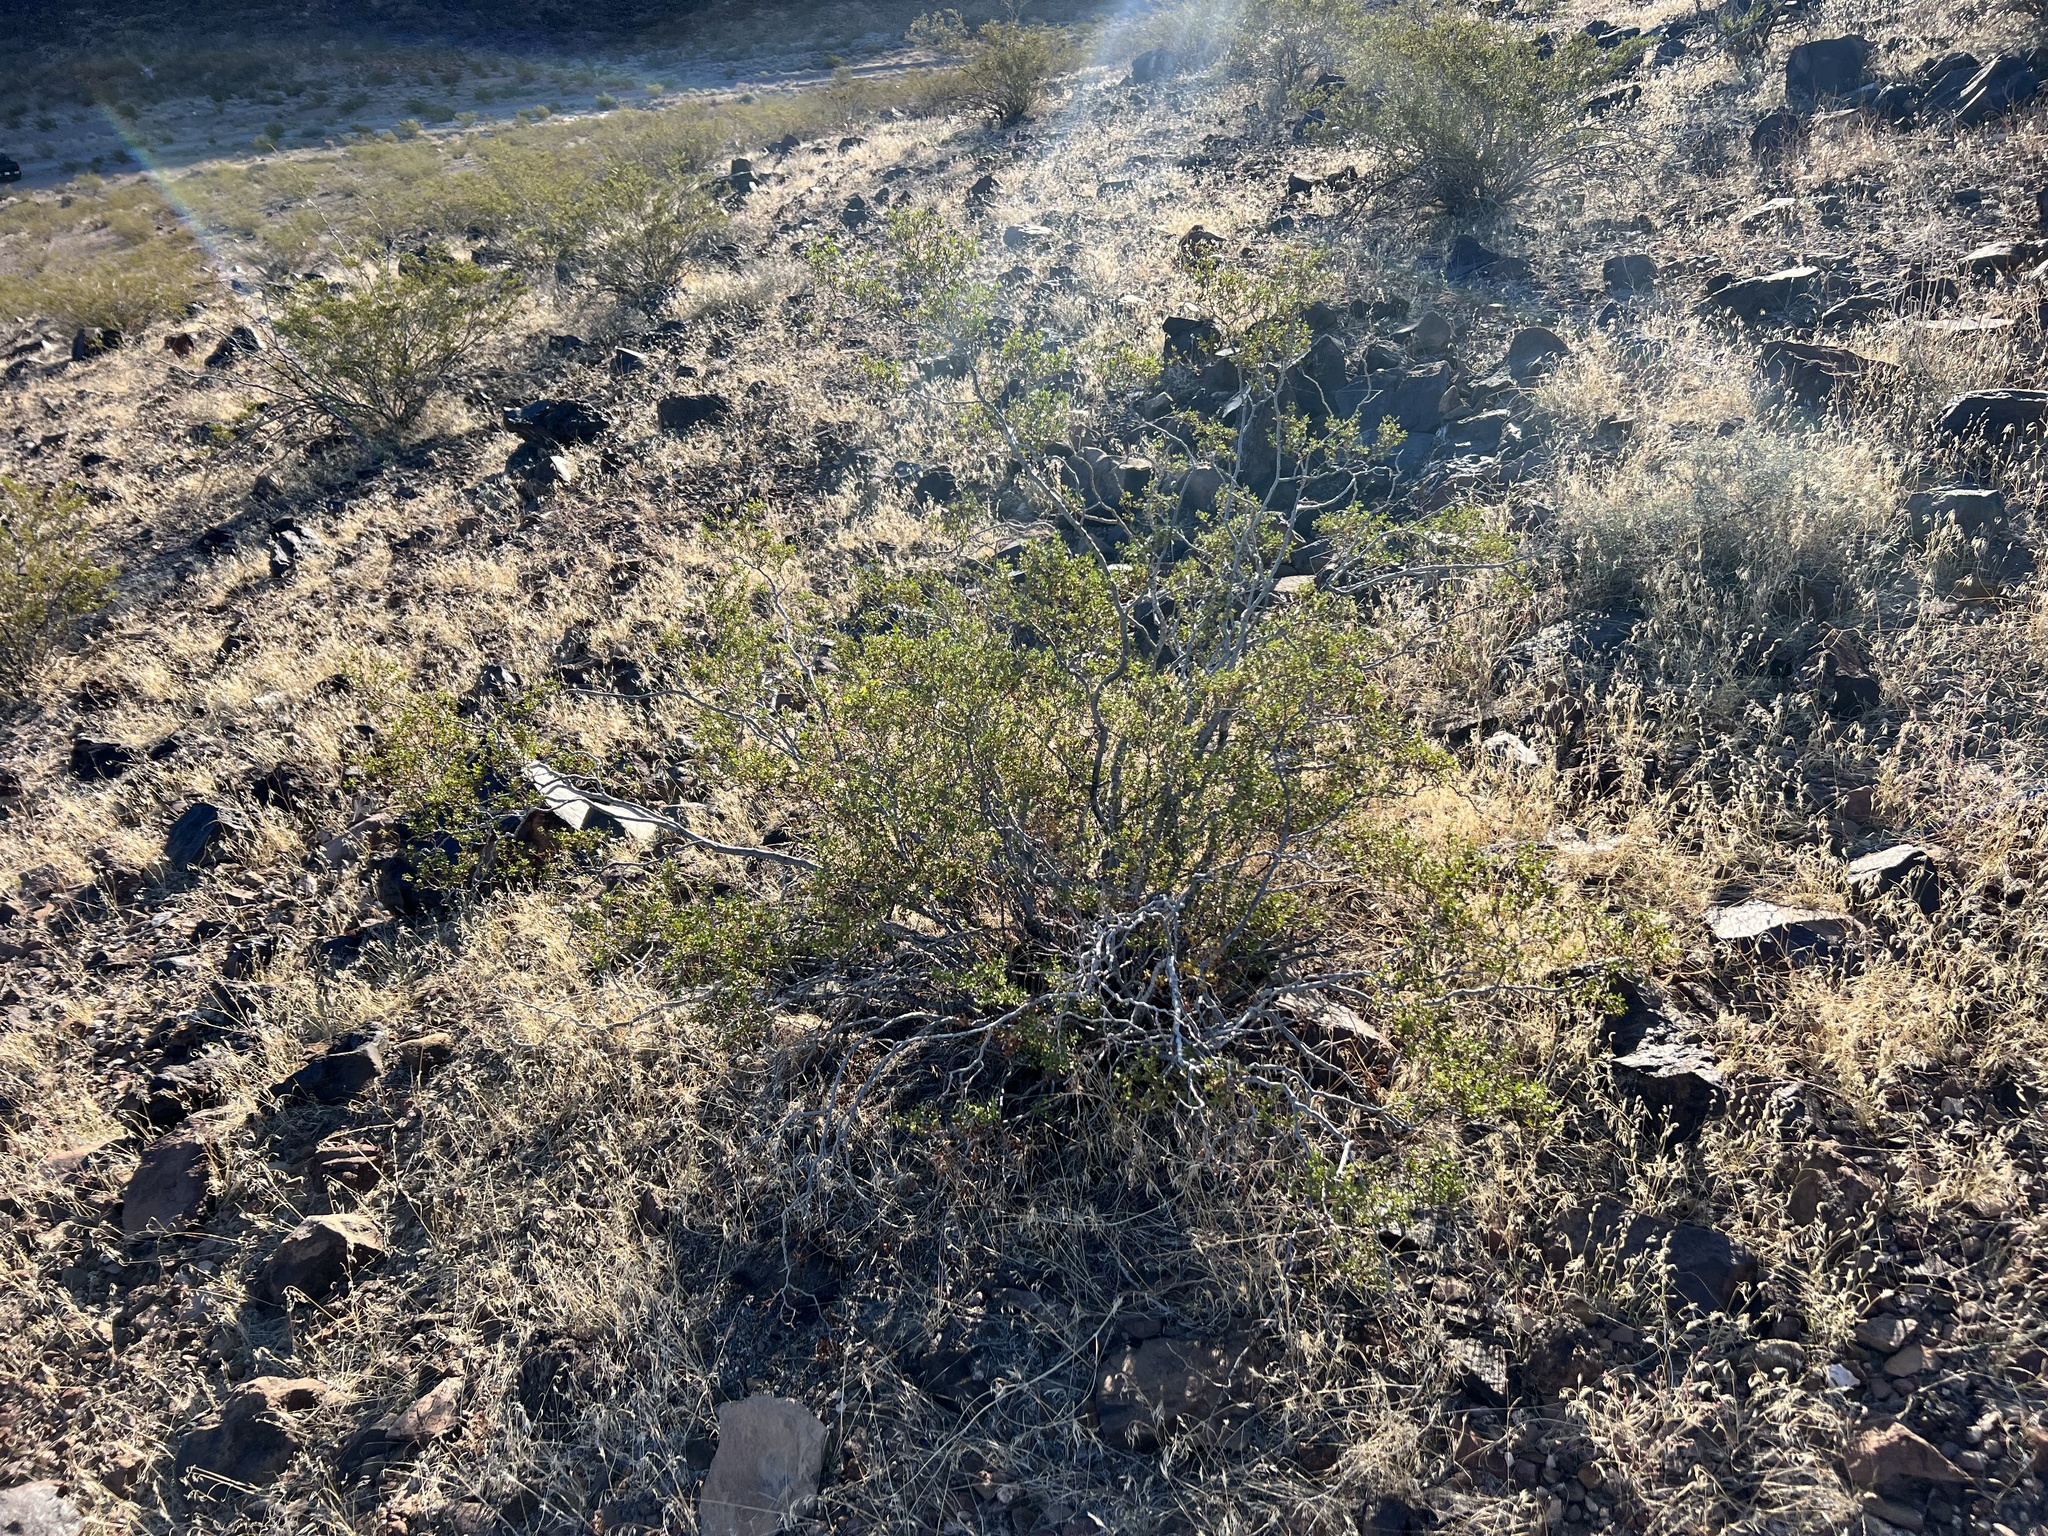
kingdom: Plantae
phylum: Tracheophyta
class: Magnoliopsida
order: Zygophyllales
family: Zygophyllaceae
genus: Larrea
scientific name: Larrea tridentata
